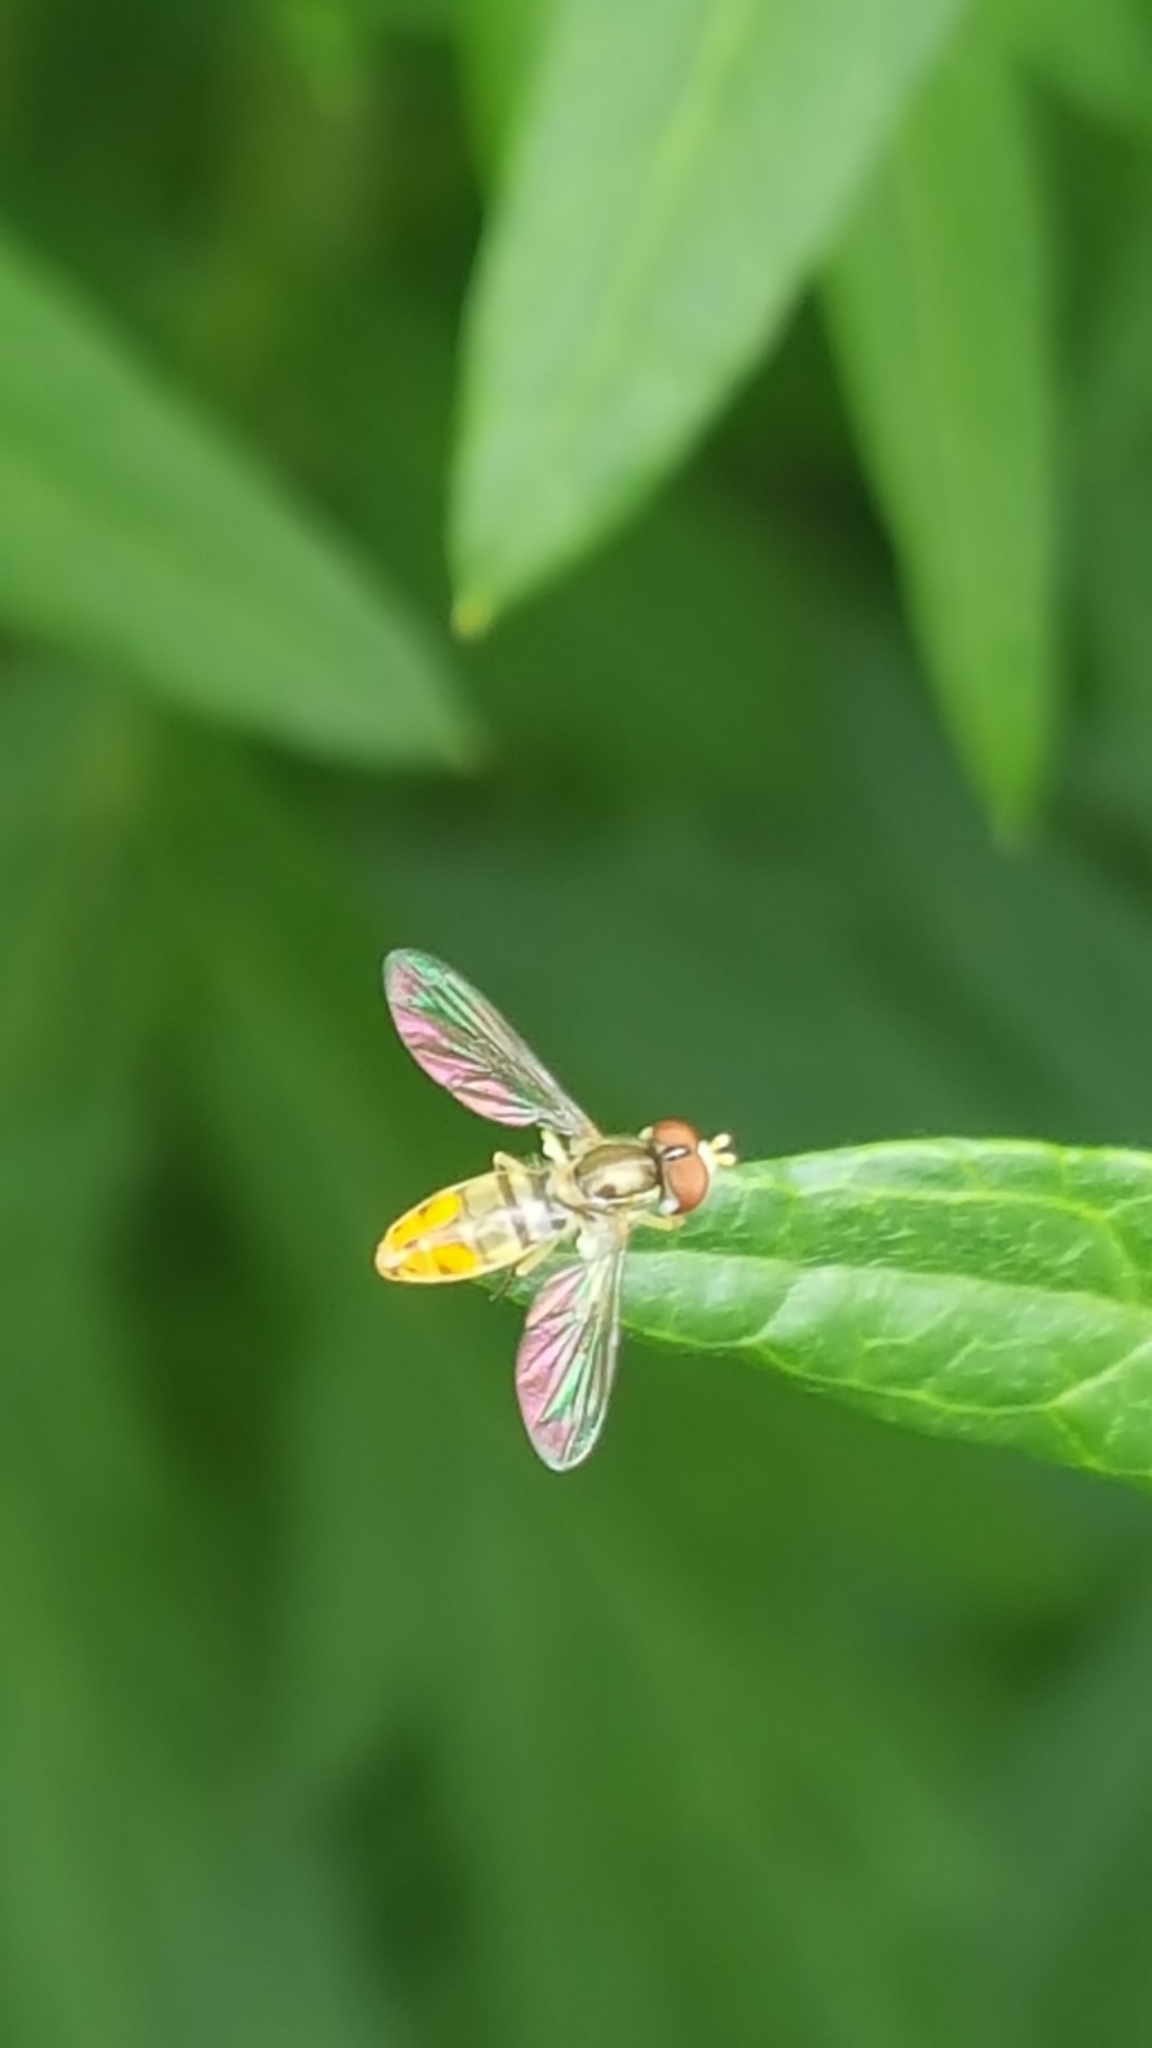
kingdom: Animalia
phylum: Arthropoda
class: Insecta
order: Diptera
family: Syrphidae
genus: Toxomerus
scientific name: Toxomerus marginatus
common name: Syrphid fly
